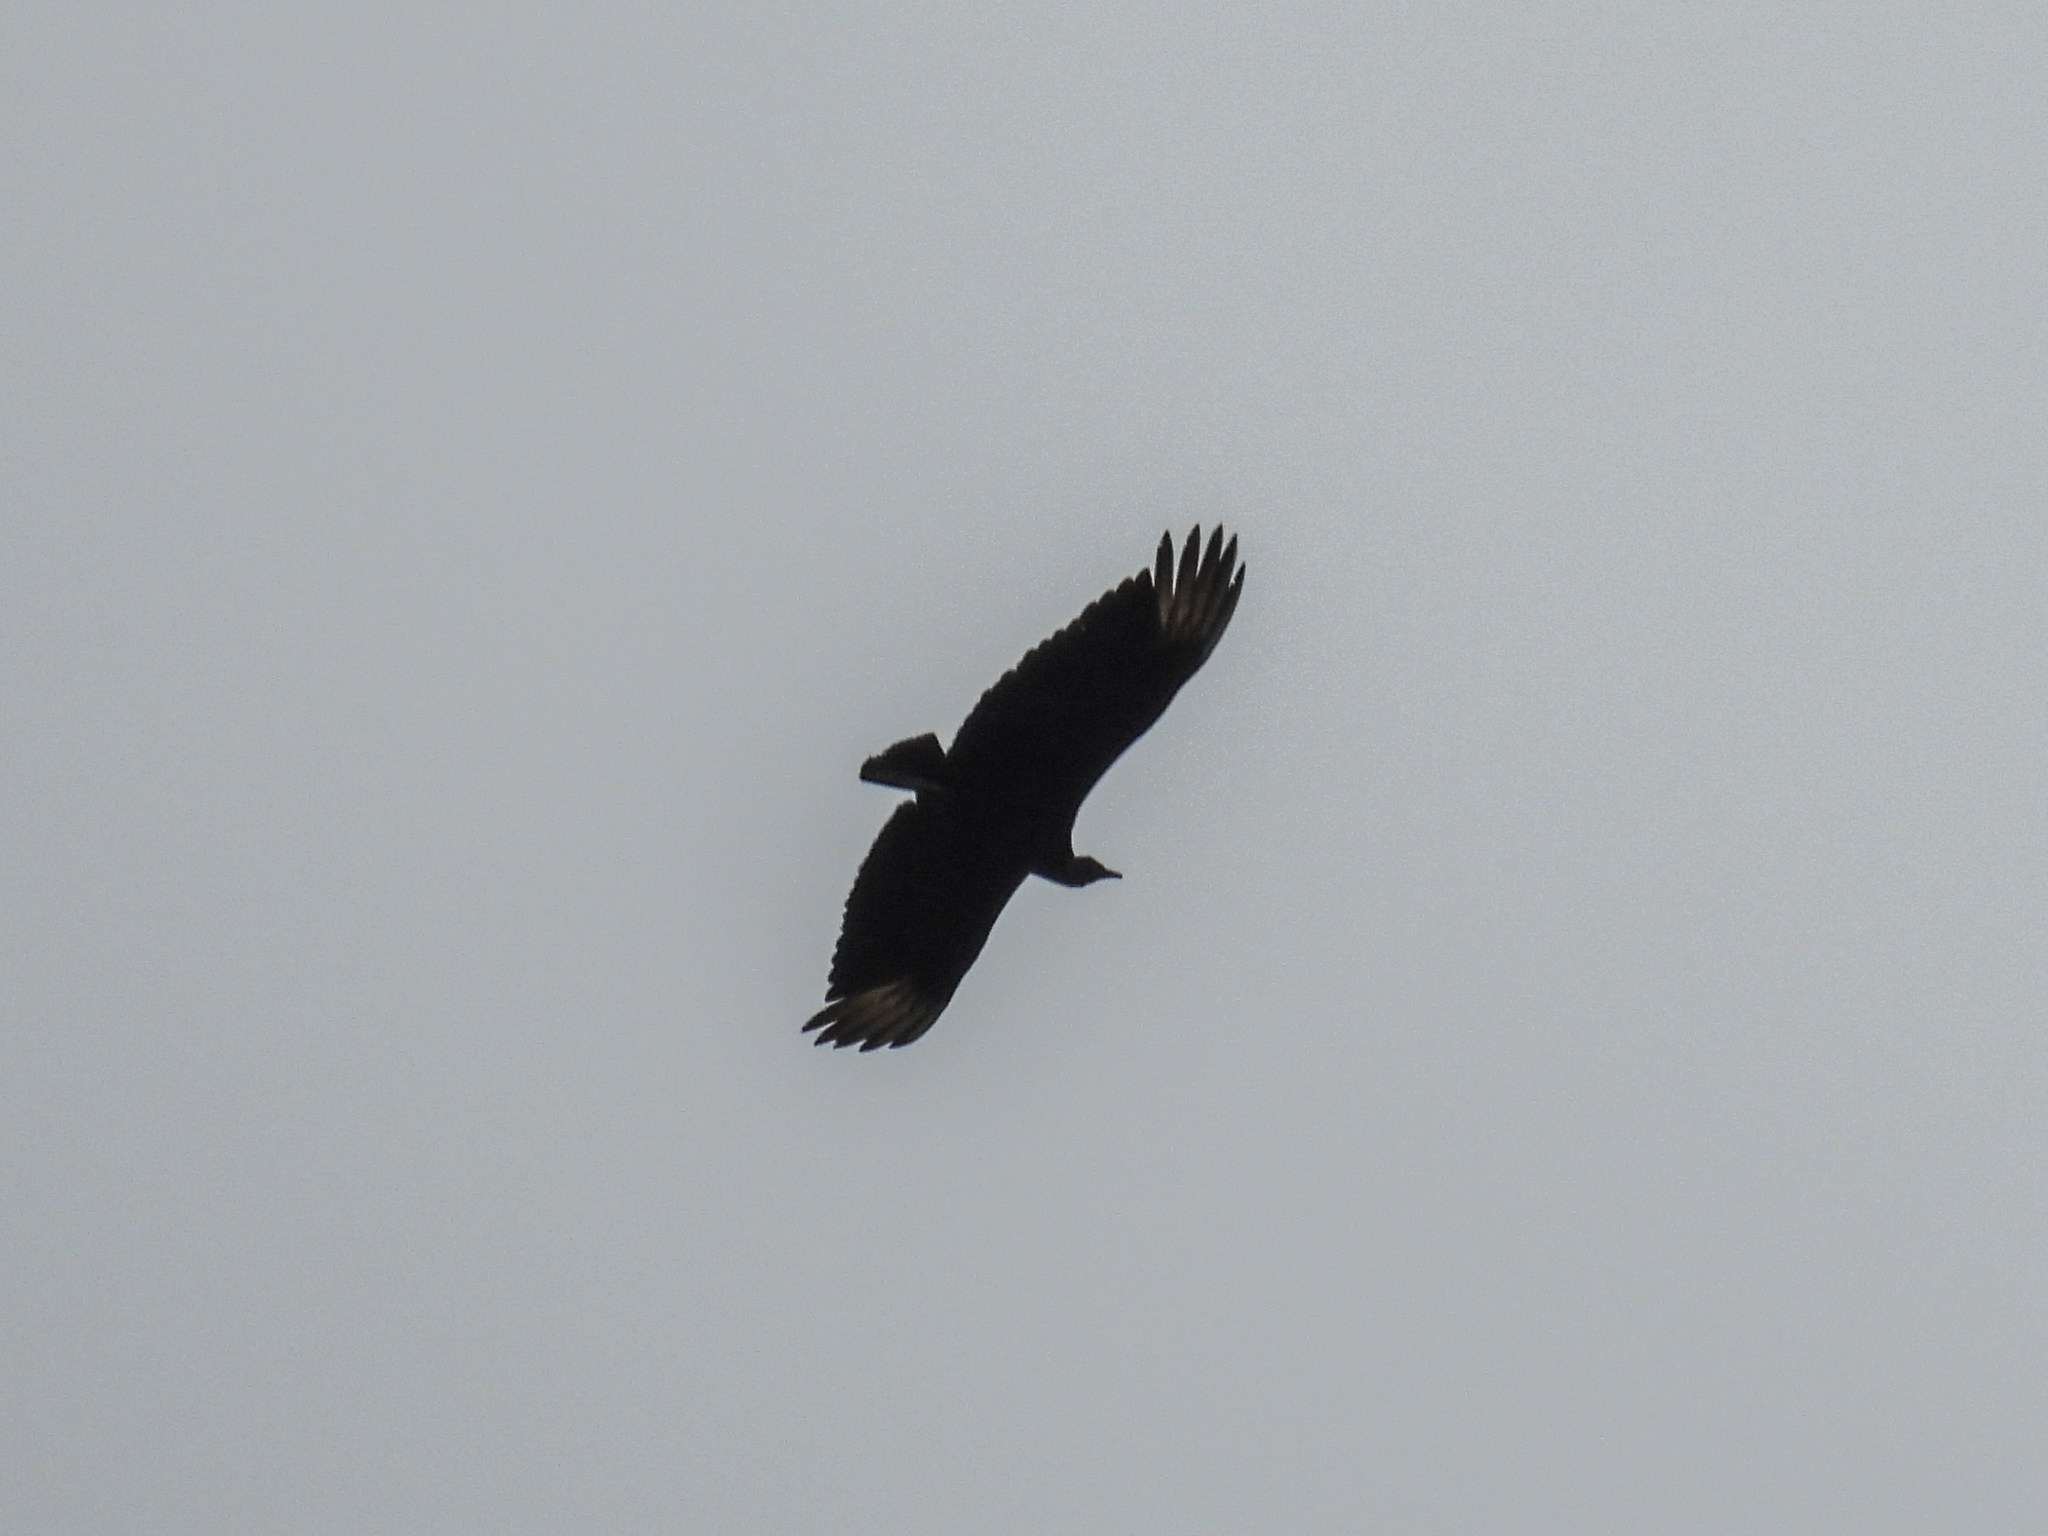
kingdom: Animalia
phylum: Chordata
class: Aves
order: Accipitriformes
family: Cathartidae
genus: Coragyps
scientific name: Coragyps atratus
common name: Black vulture
